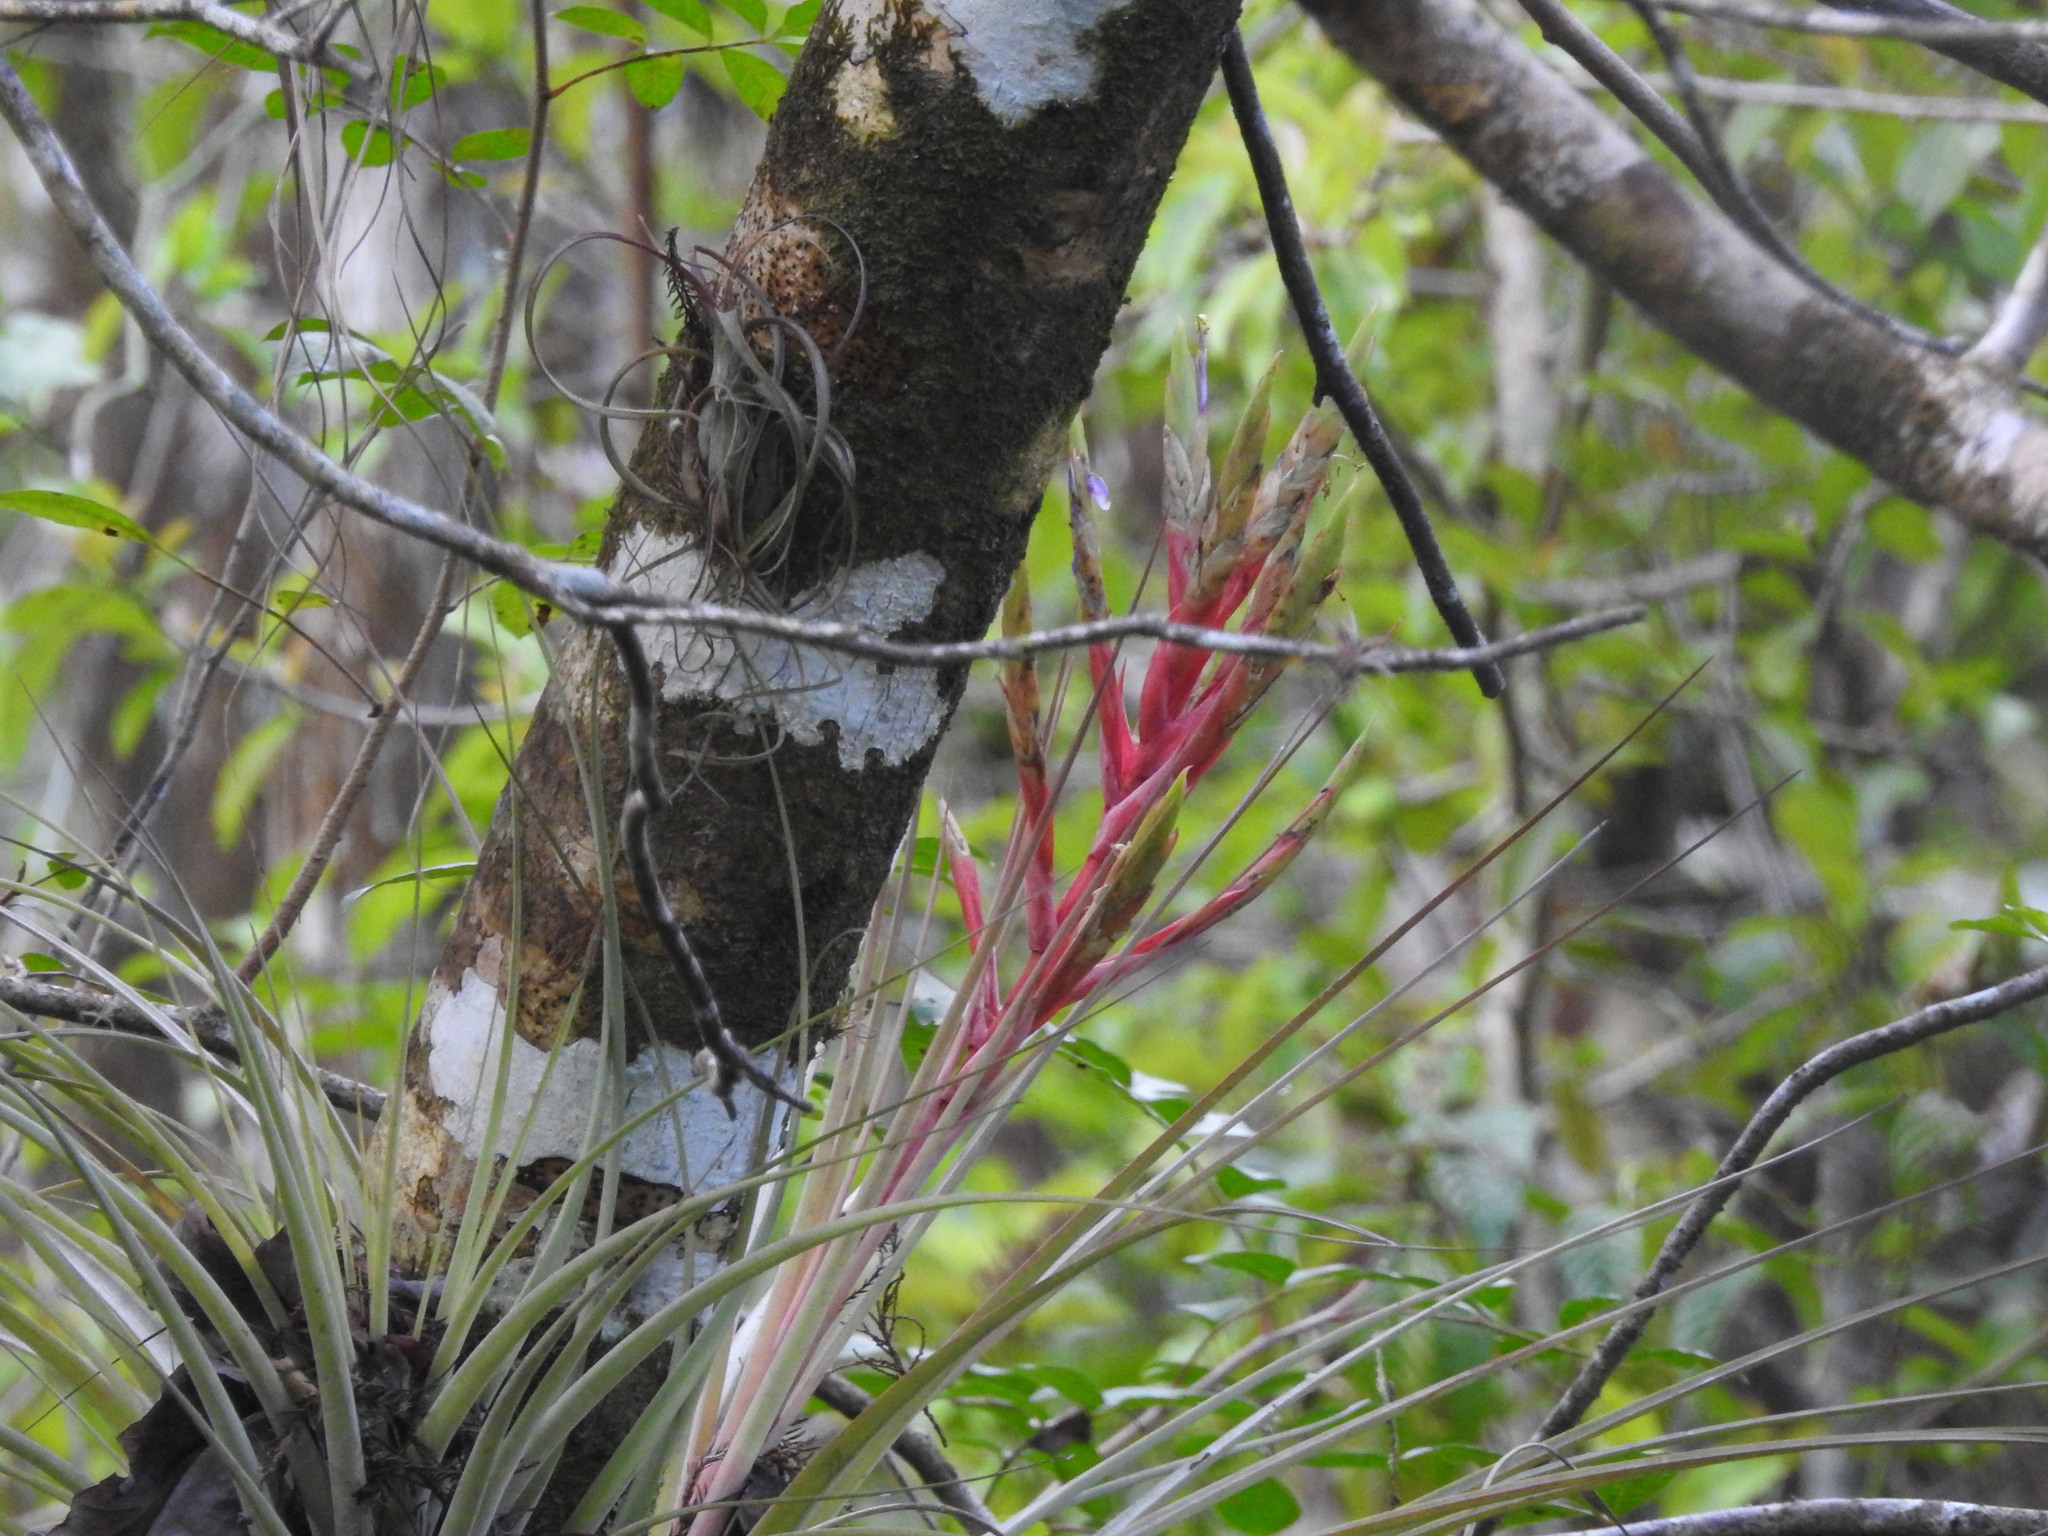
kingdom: Plantae
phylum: Tracheophyta
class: Liliopsida
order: Poales
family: Bromeliaceae
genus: Tillandsia
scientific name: Tillandsia fasciculata
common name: Giant airplant
